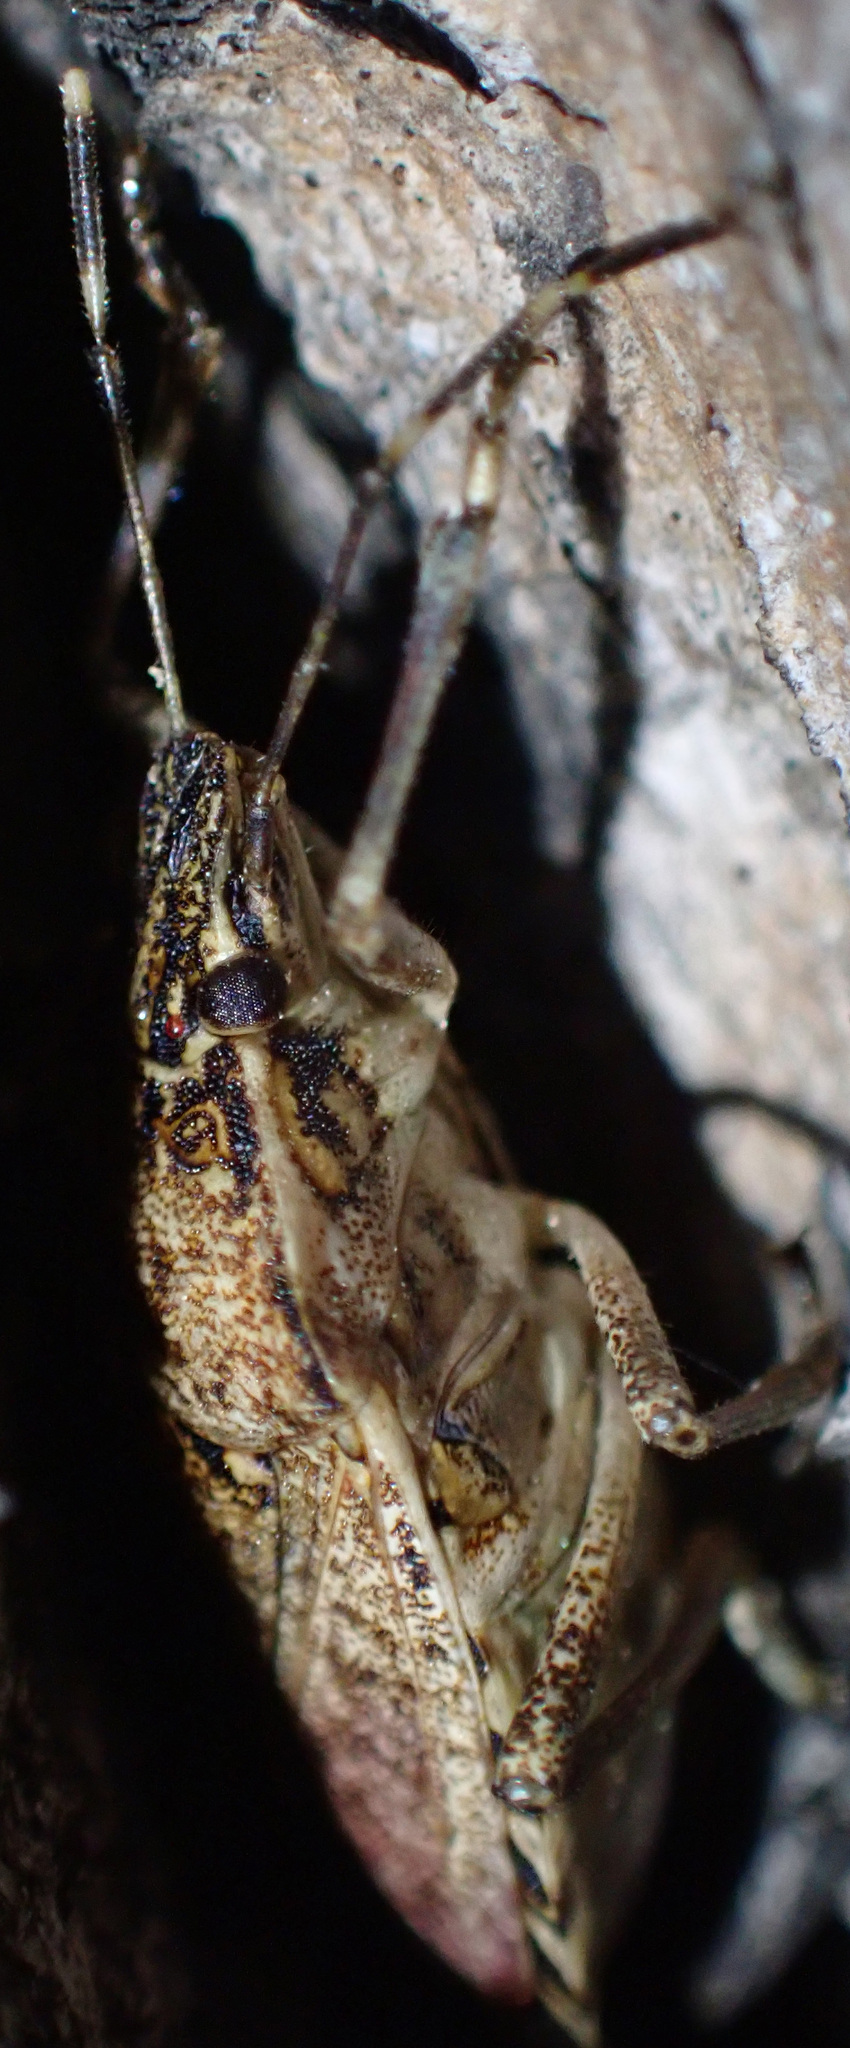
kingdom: Animalia
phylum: Arthropoda
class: Insecta
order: Hemiptera
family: Pentatomidae
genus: Halyomorpha
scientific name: Halyomorpha halys
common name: Brown marmorated stink bug
